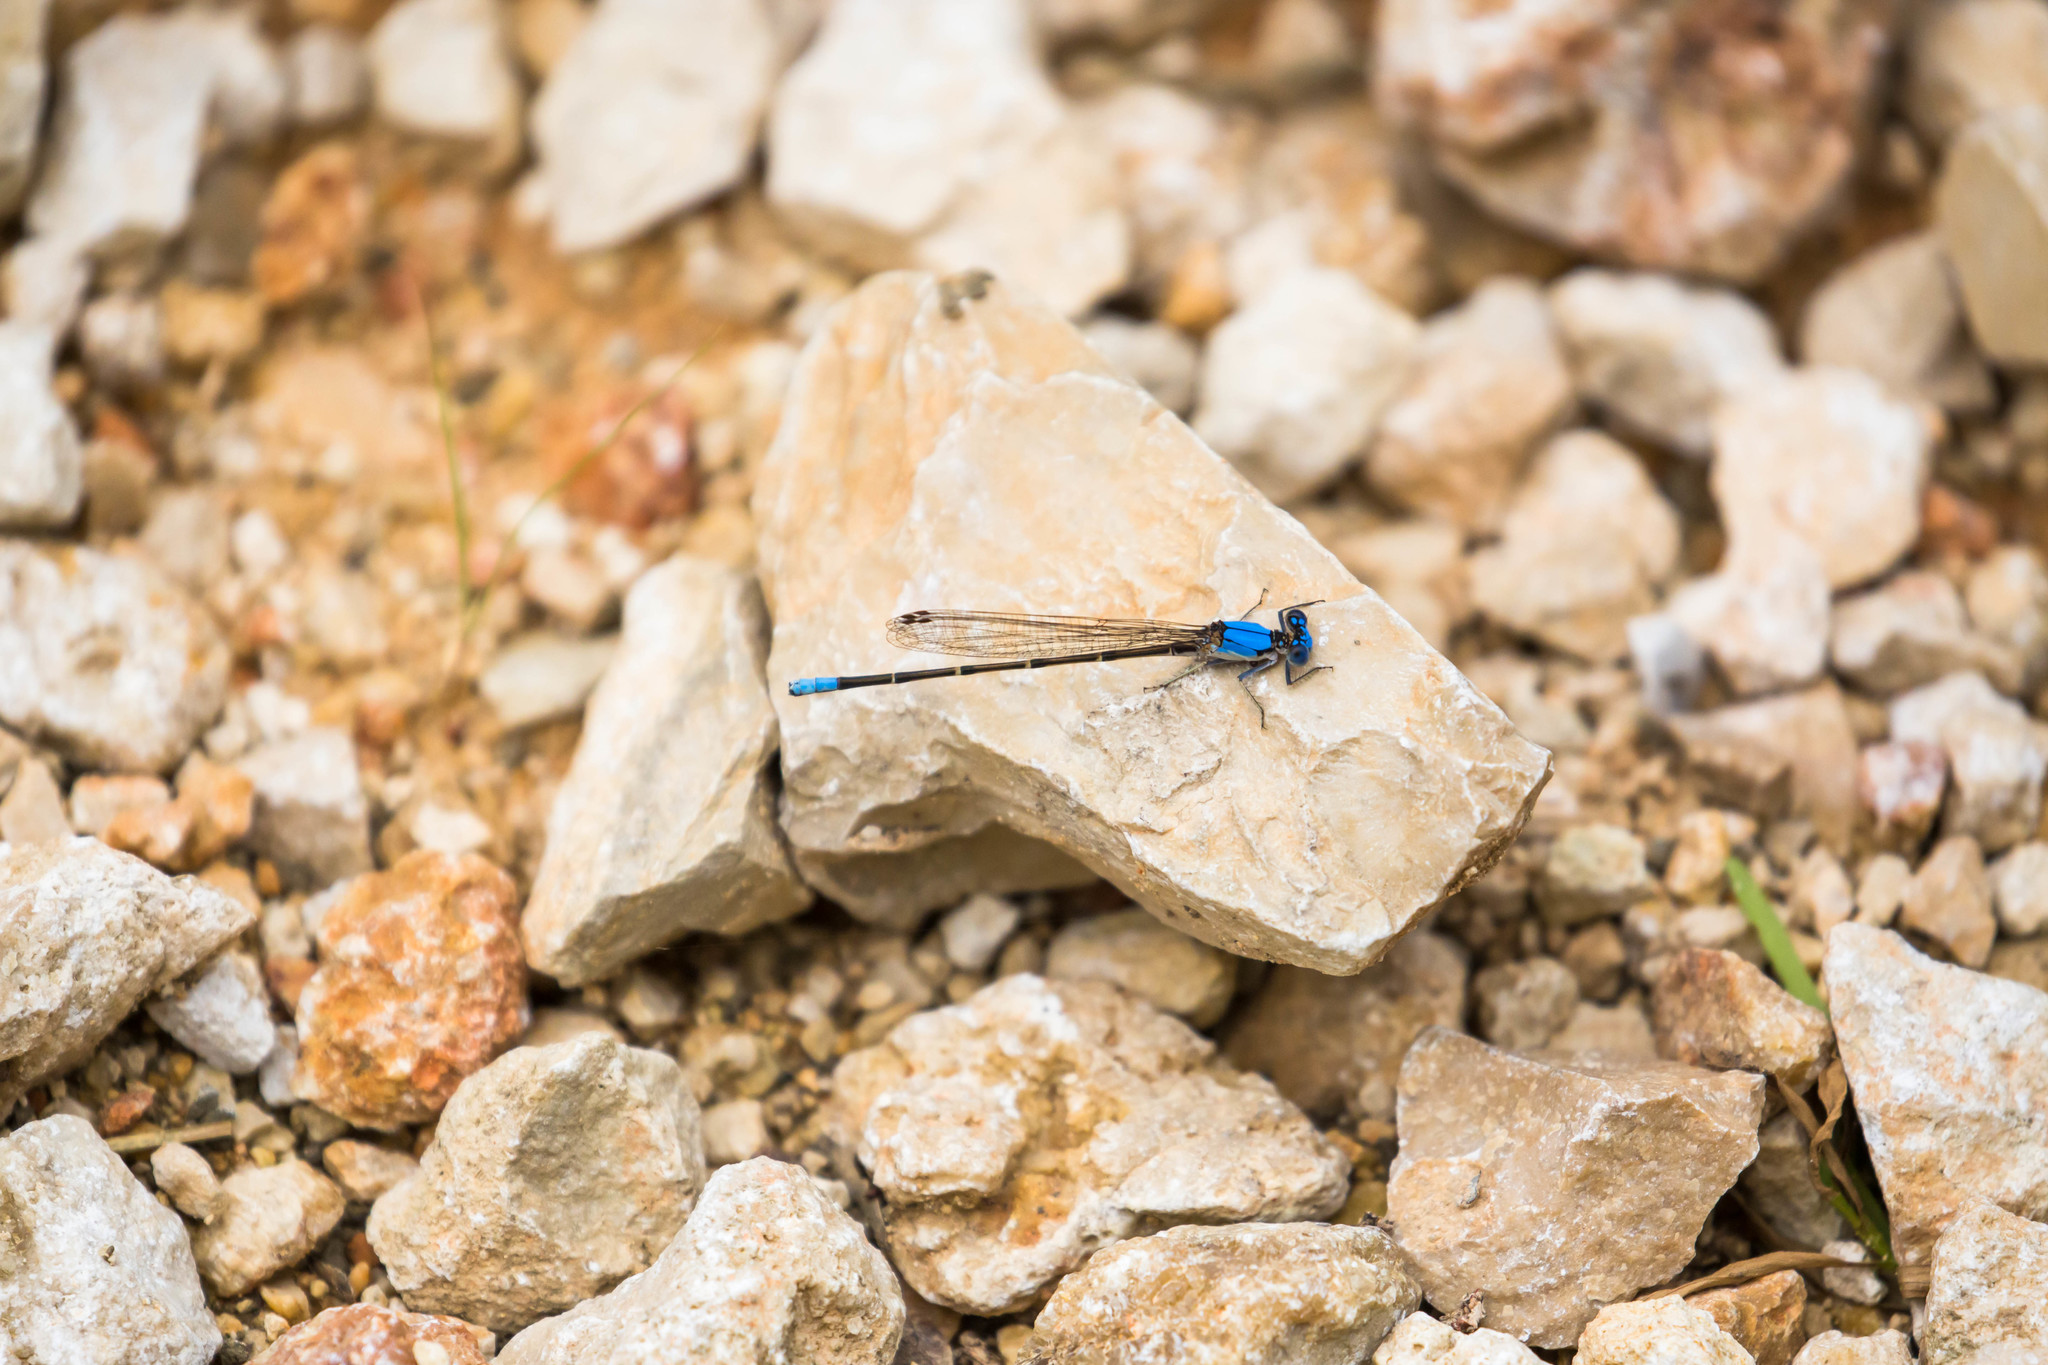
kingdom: Animalia
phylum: Arthropoda
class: Insecta
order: Odonata
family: Coenagrionidae
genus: Argia
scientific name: Argia apicalis
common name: Blue-fronted dancer
